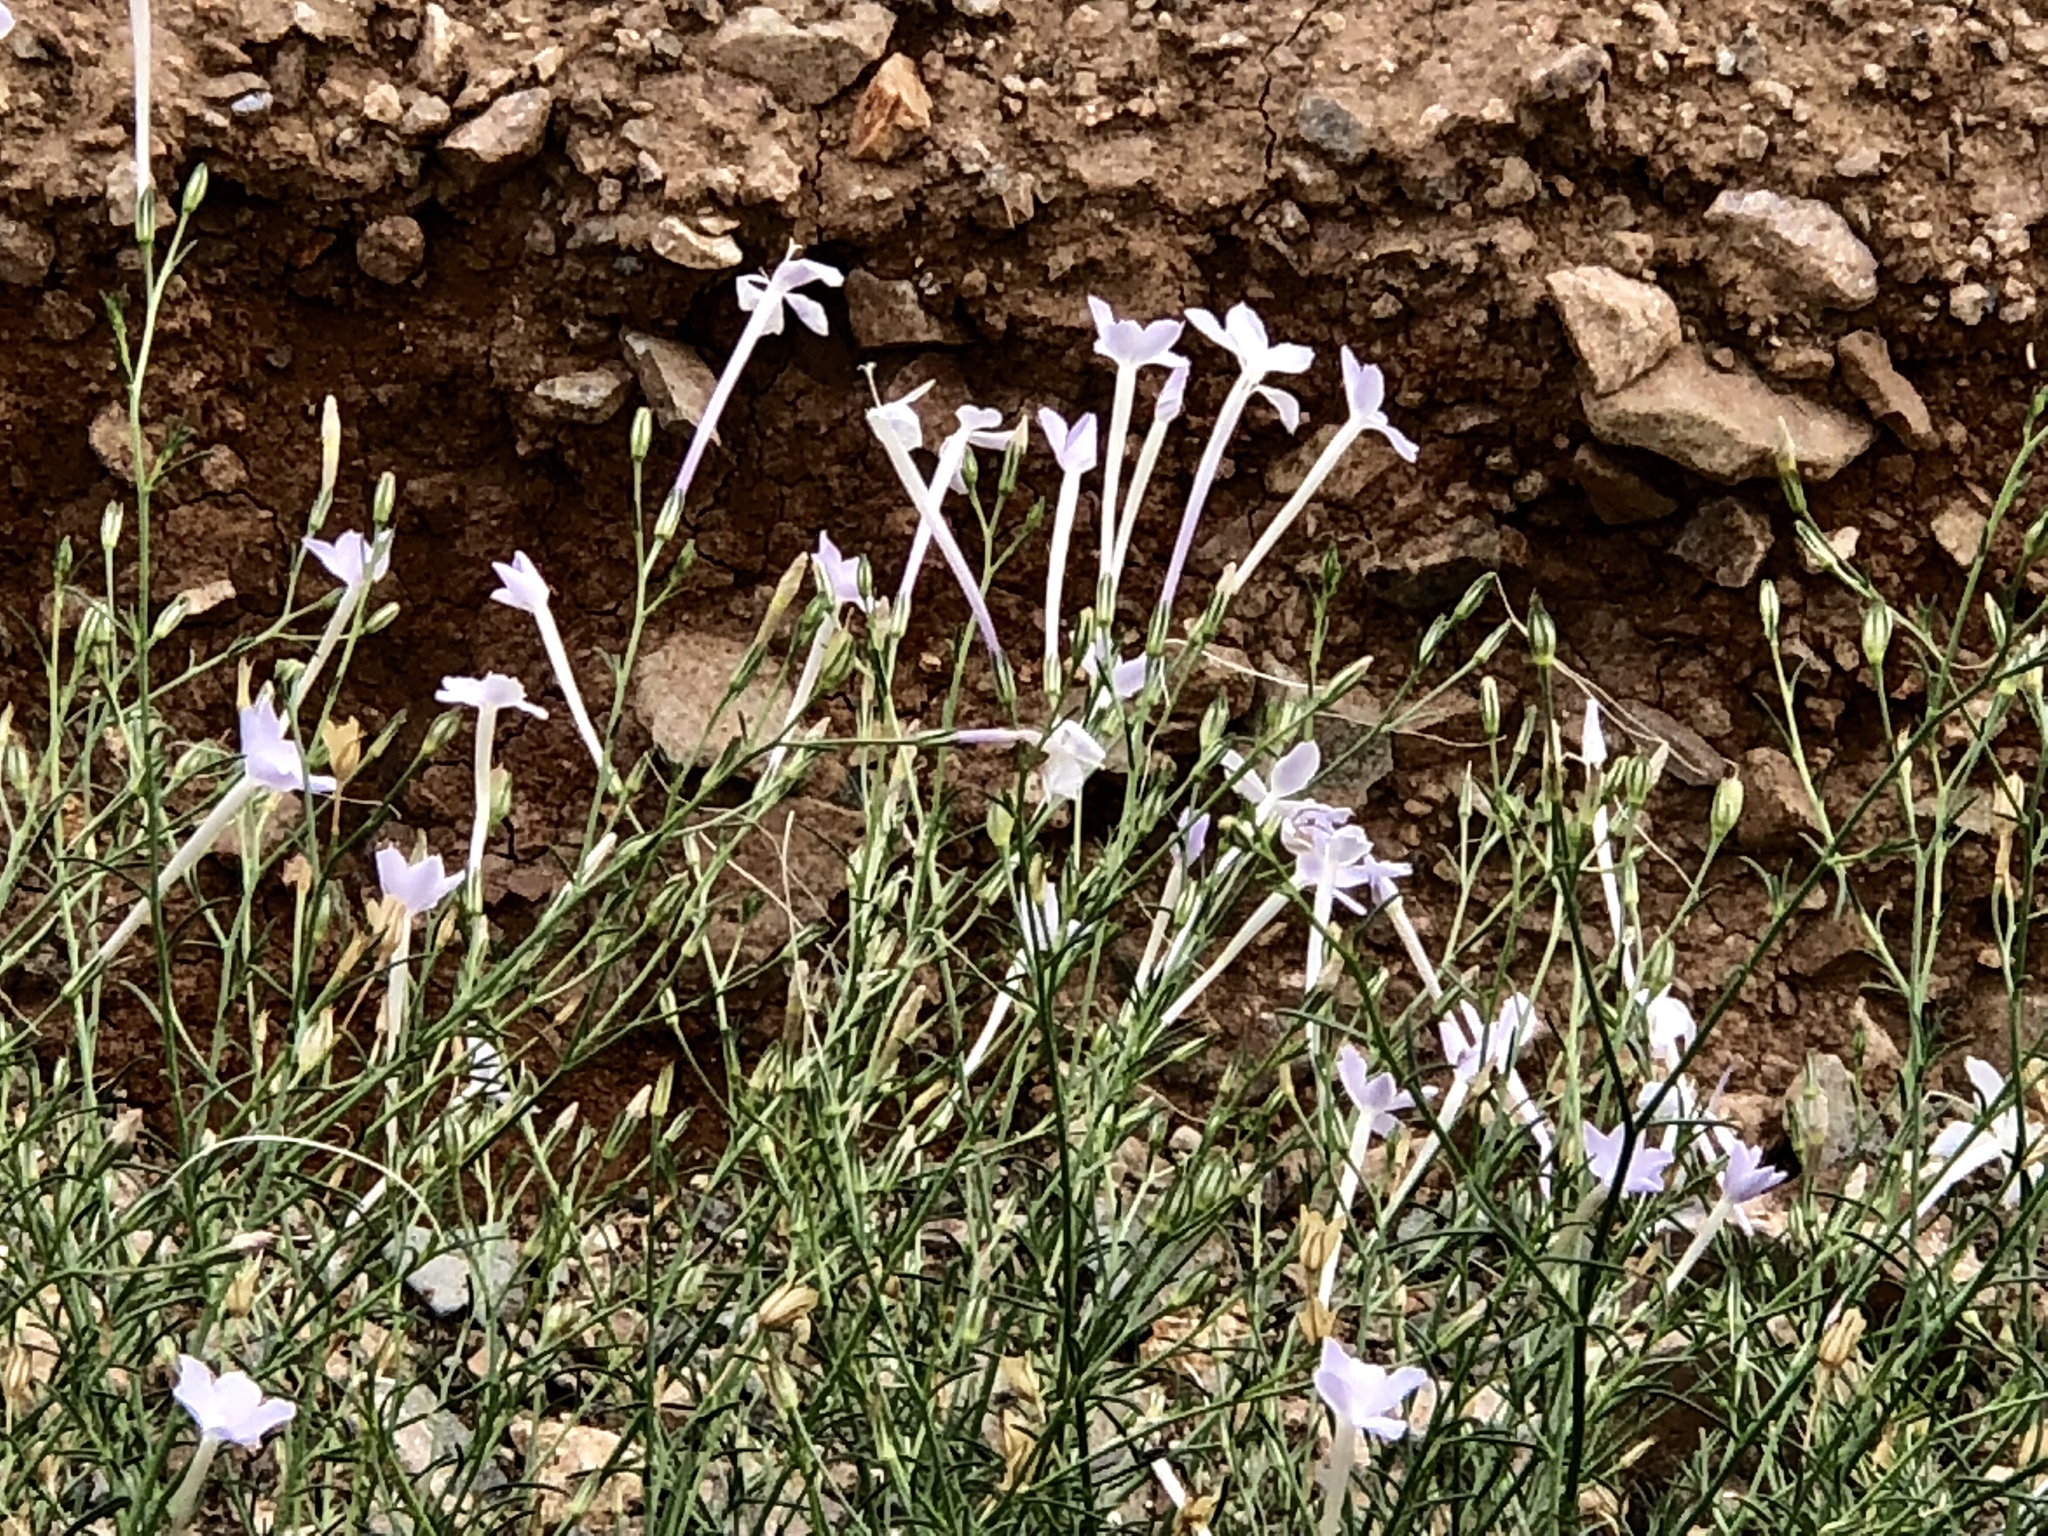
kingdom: Plantae
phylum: Tracheophyta
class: Magnoliopsida
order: Ericales
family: Polemoniaceae
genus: Ipomopsis
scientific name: Ipomopsis longiflora
